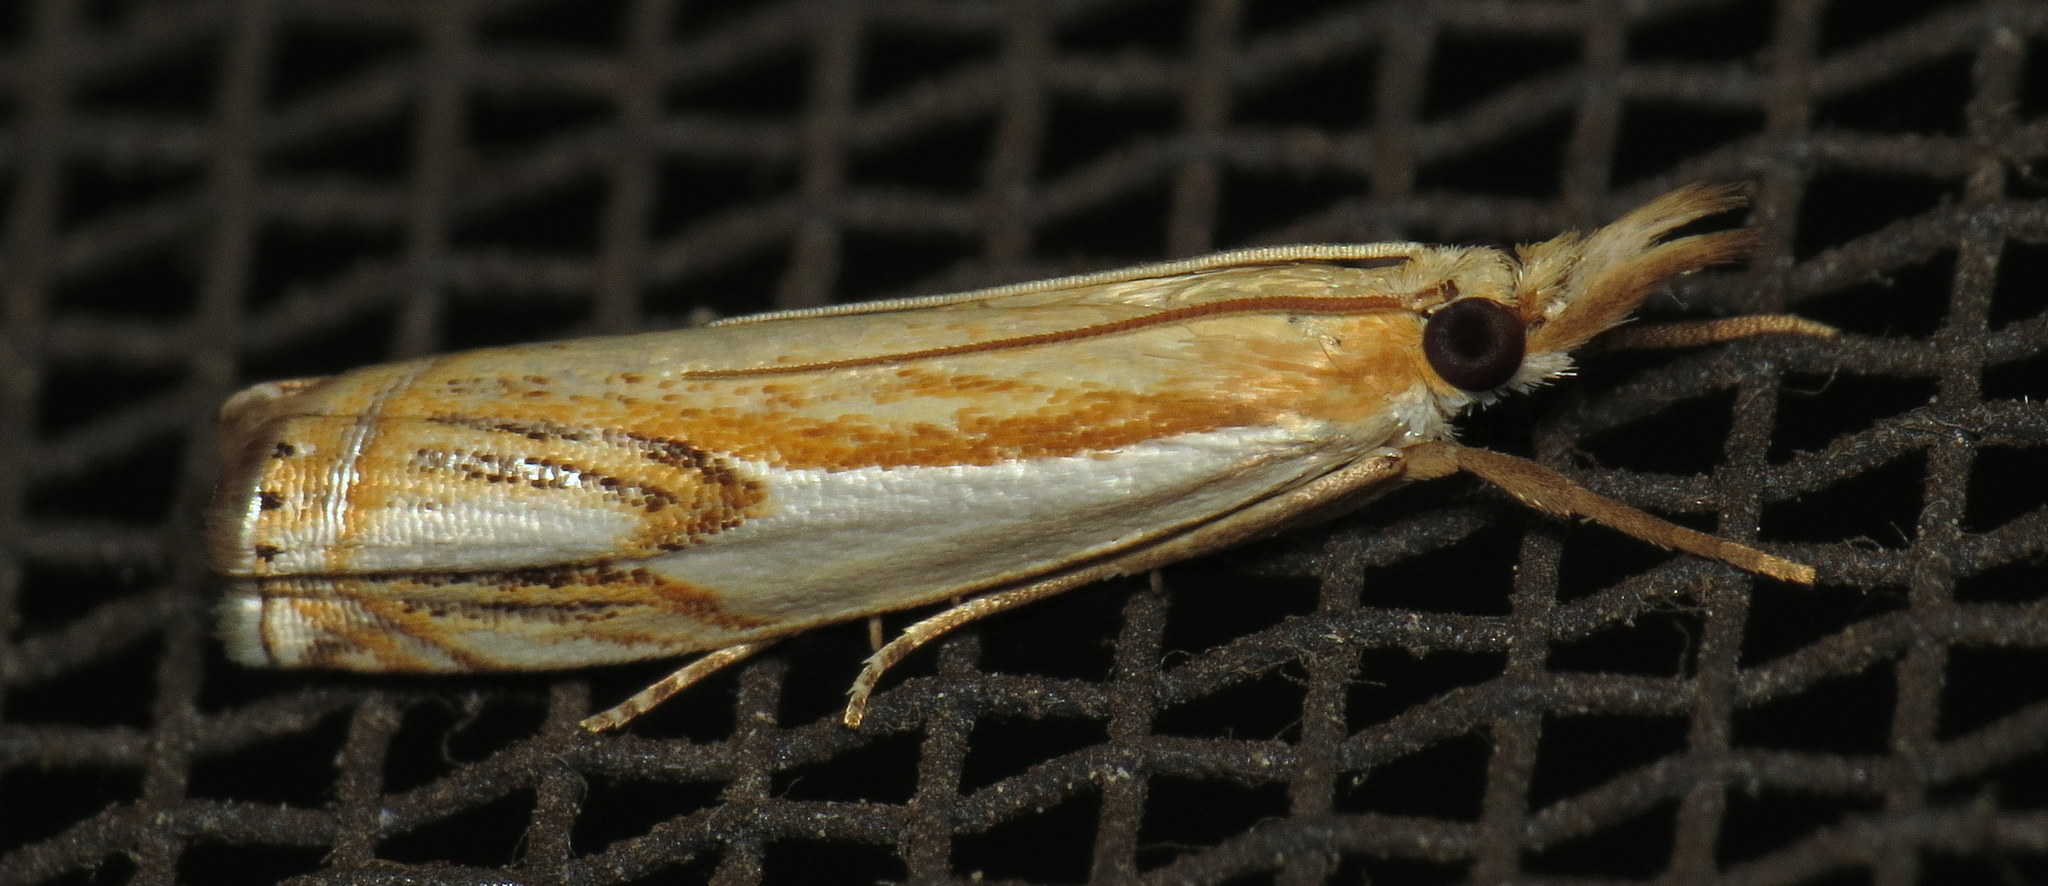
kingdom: Animalia
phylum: Arthropoda
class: Insecta
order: Lepidoptera
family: Crambidae
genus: Crambus
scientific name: Crambus agitatellus
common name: Double-banded grass-veneer
